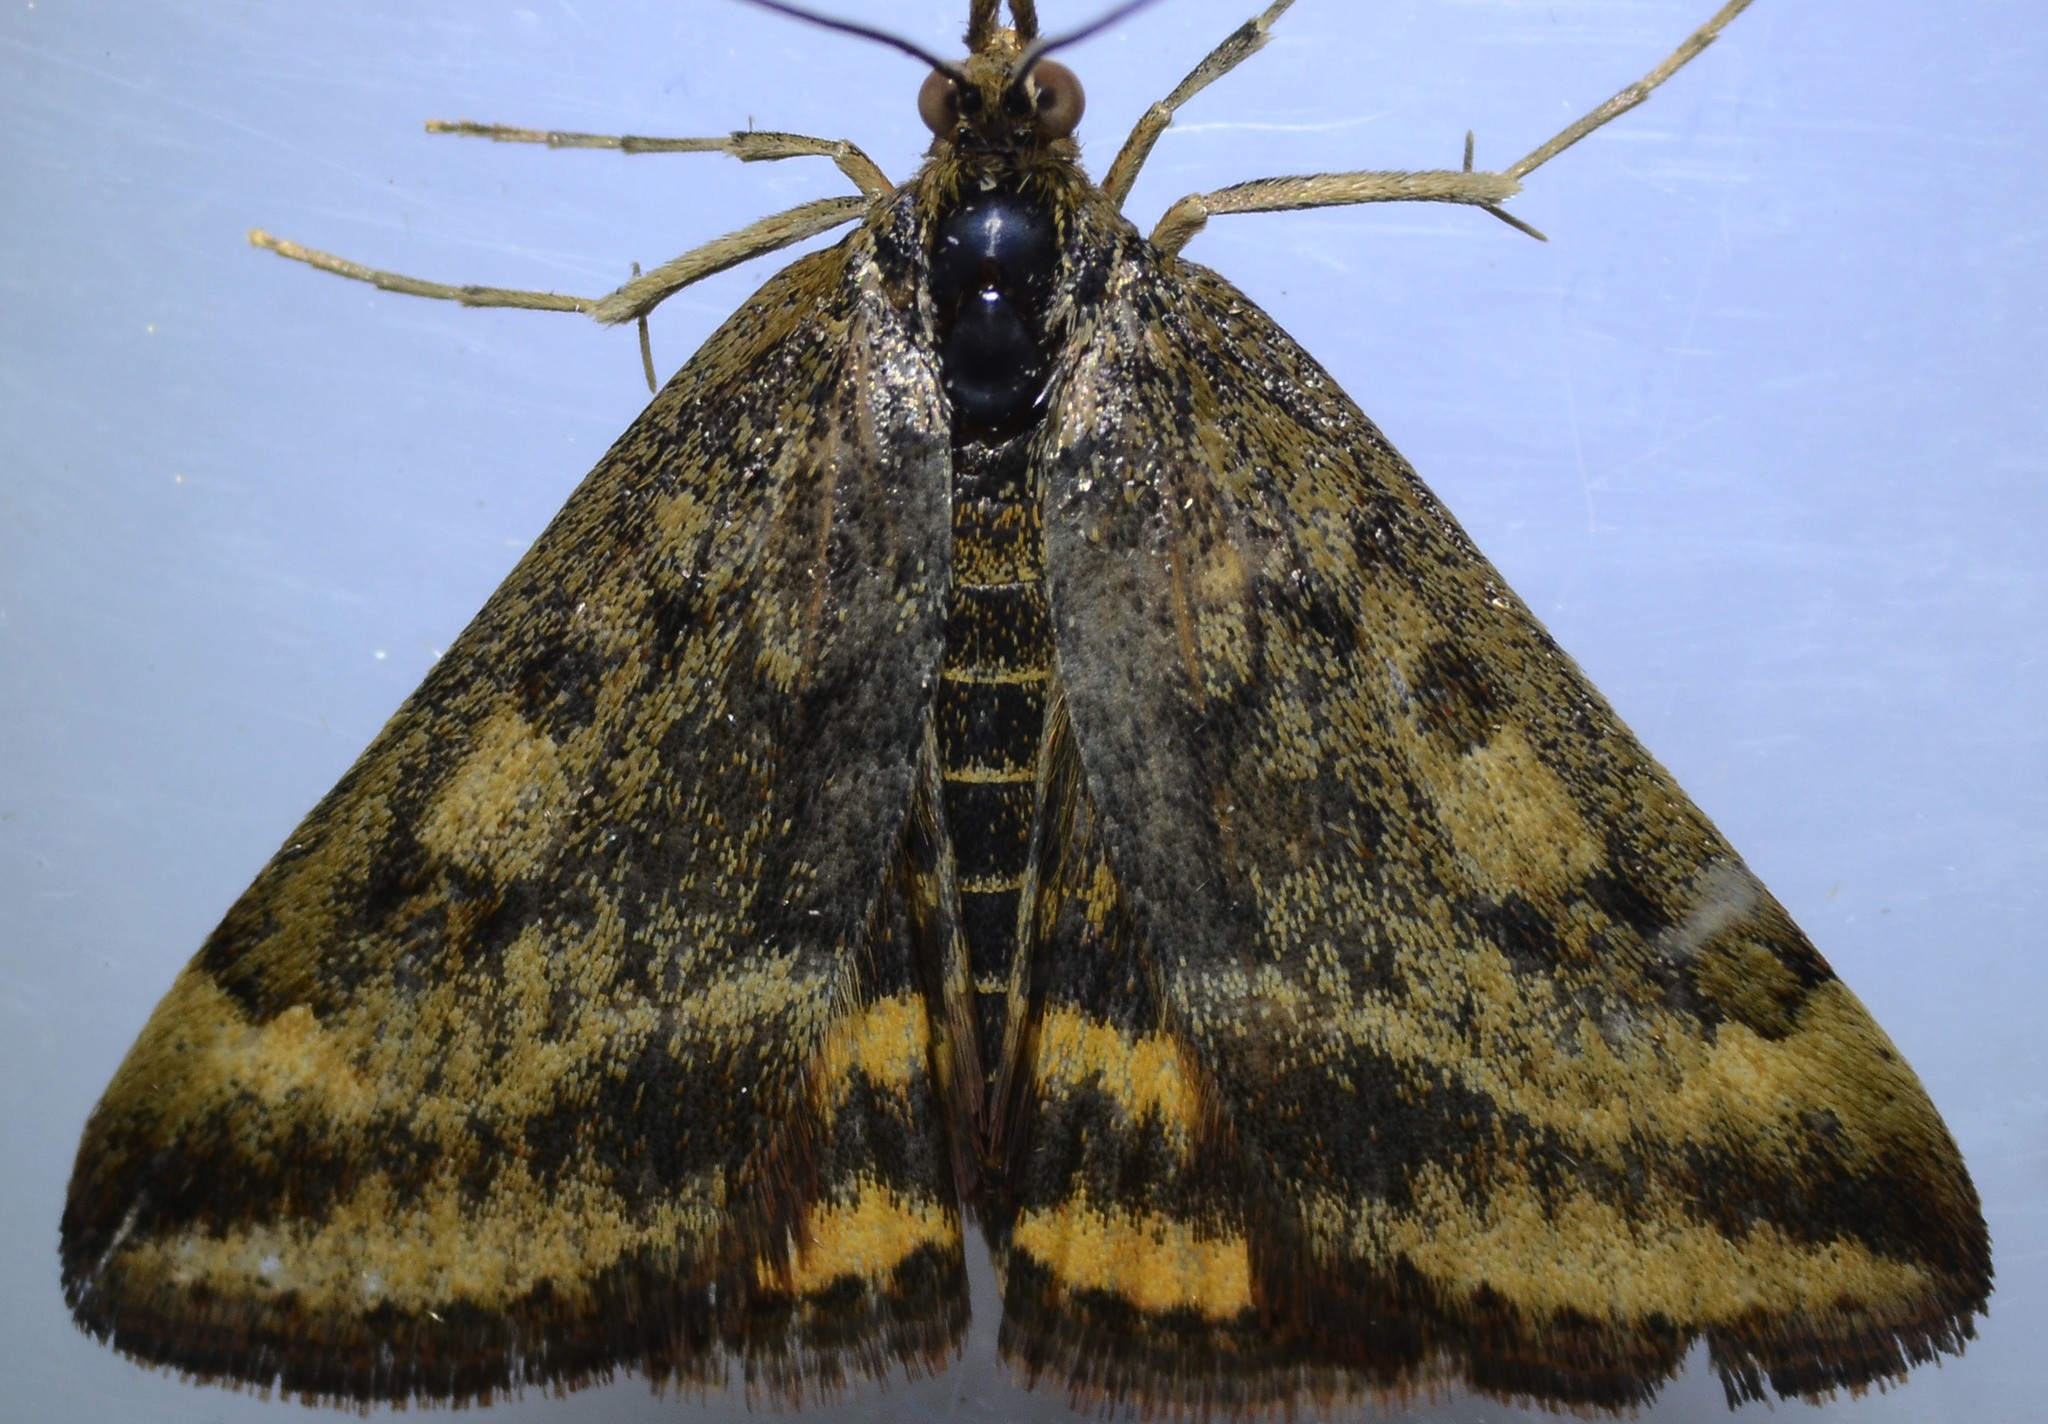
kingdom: Animalia
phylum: Arthropoda
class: Insecta
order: Lepidoptera
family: Crambidae
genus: Pyrausta
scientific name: Pyrausta subsequalis
